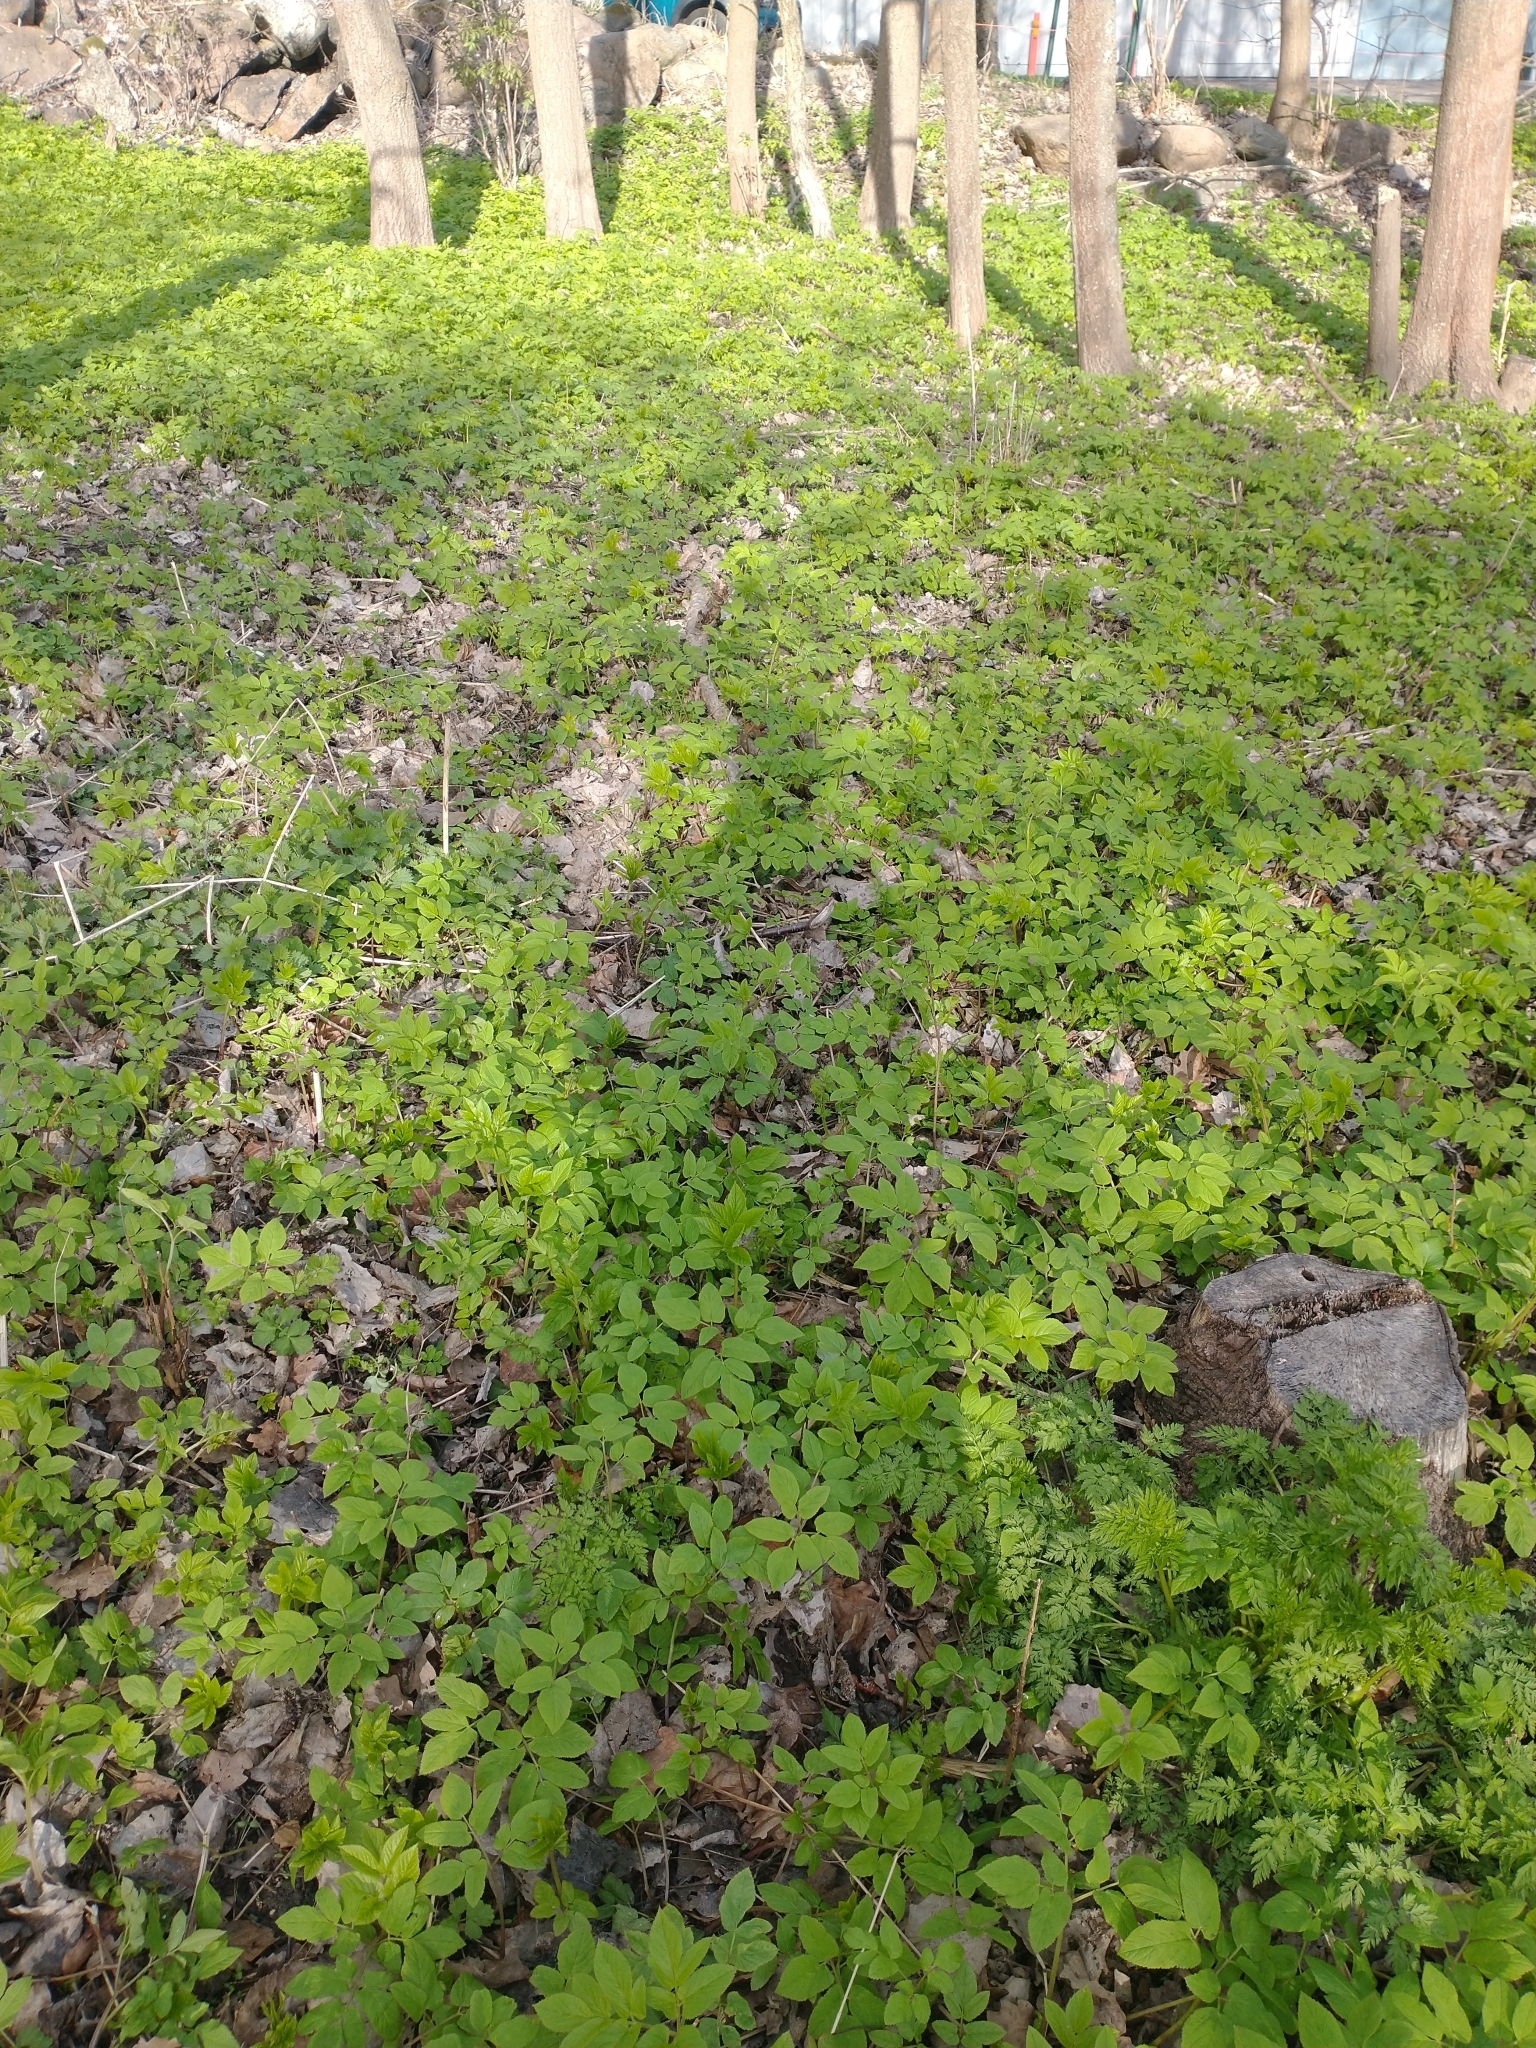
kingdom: Plantae
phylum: Tracheophyta
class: Magnoliopsida
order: Apiales
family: Apiaceae
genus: Aegopodium
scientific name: Aegopodium podagraria
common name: Ground-elder
